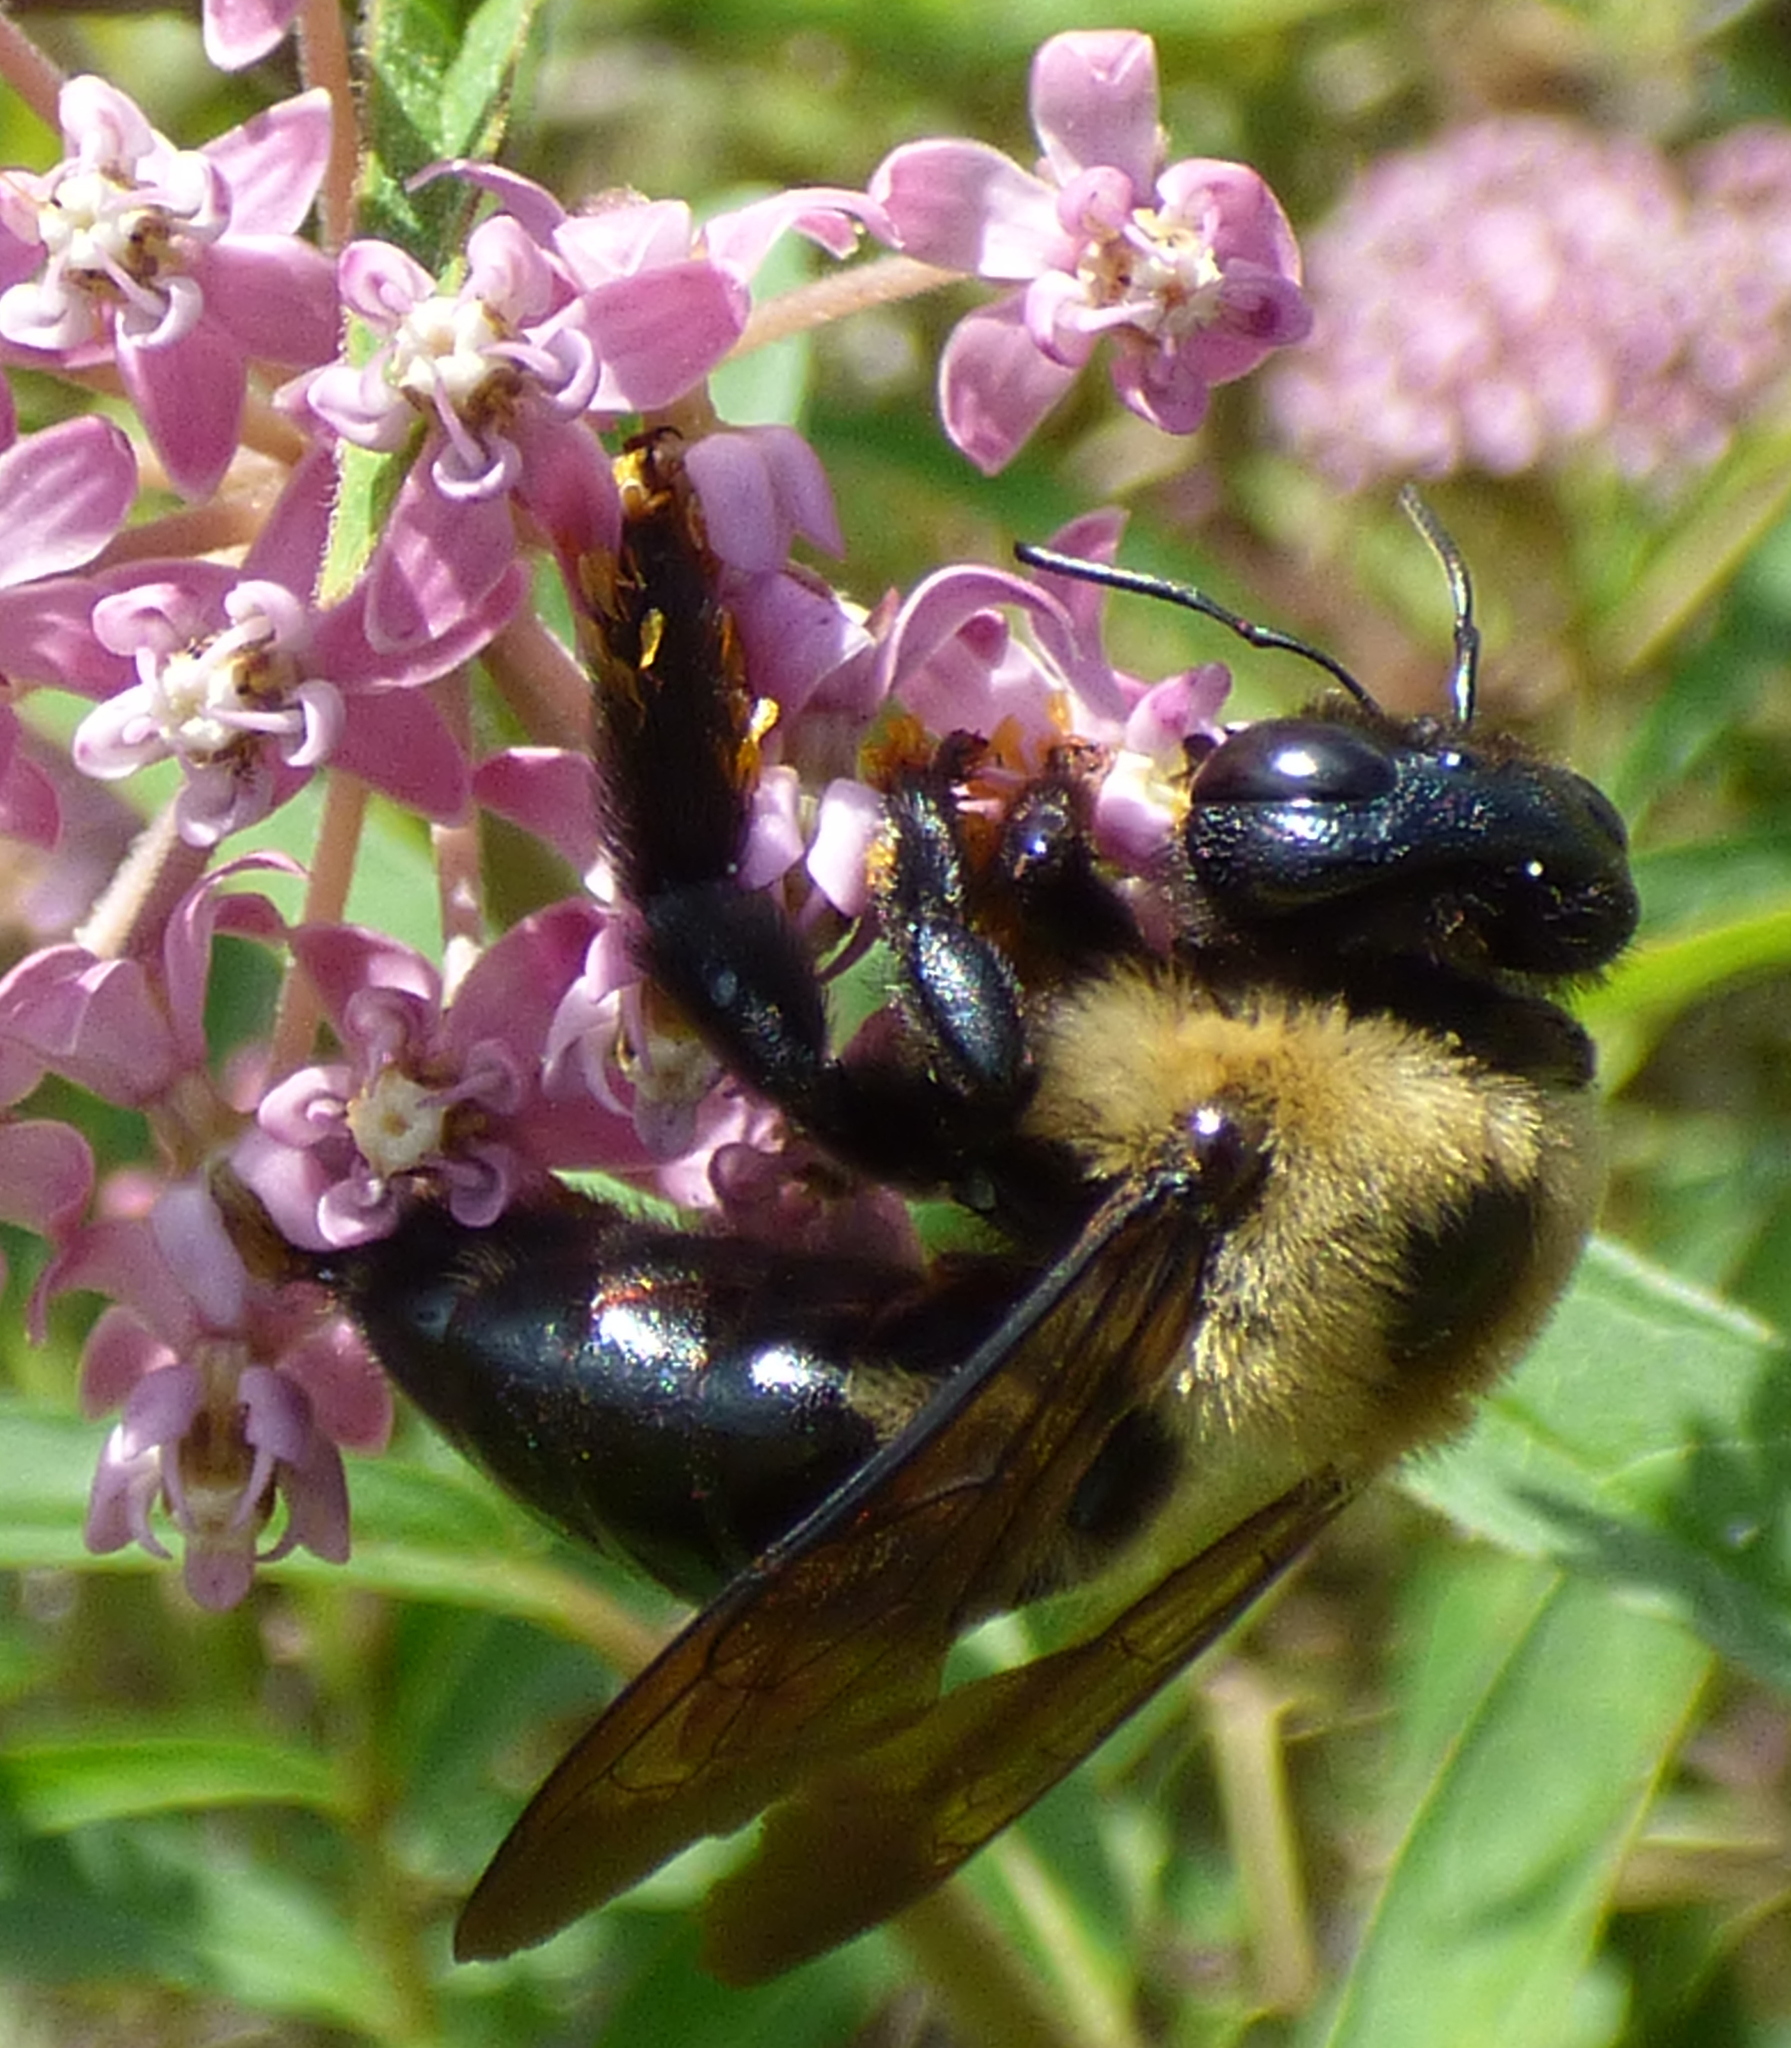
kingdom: Animalia
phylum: Arthropoda
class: Insecta
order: Hymenoptera
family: Apidae
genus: Xylocopa
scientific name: Xylocopa virginica
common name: Carpenter bee
